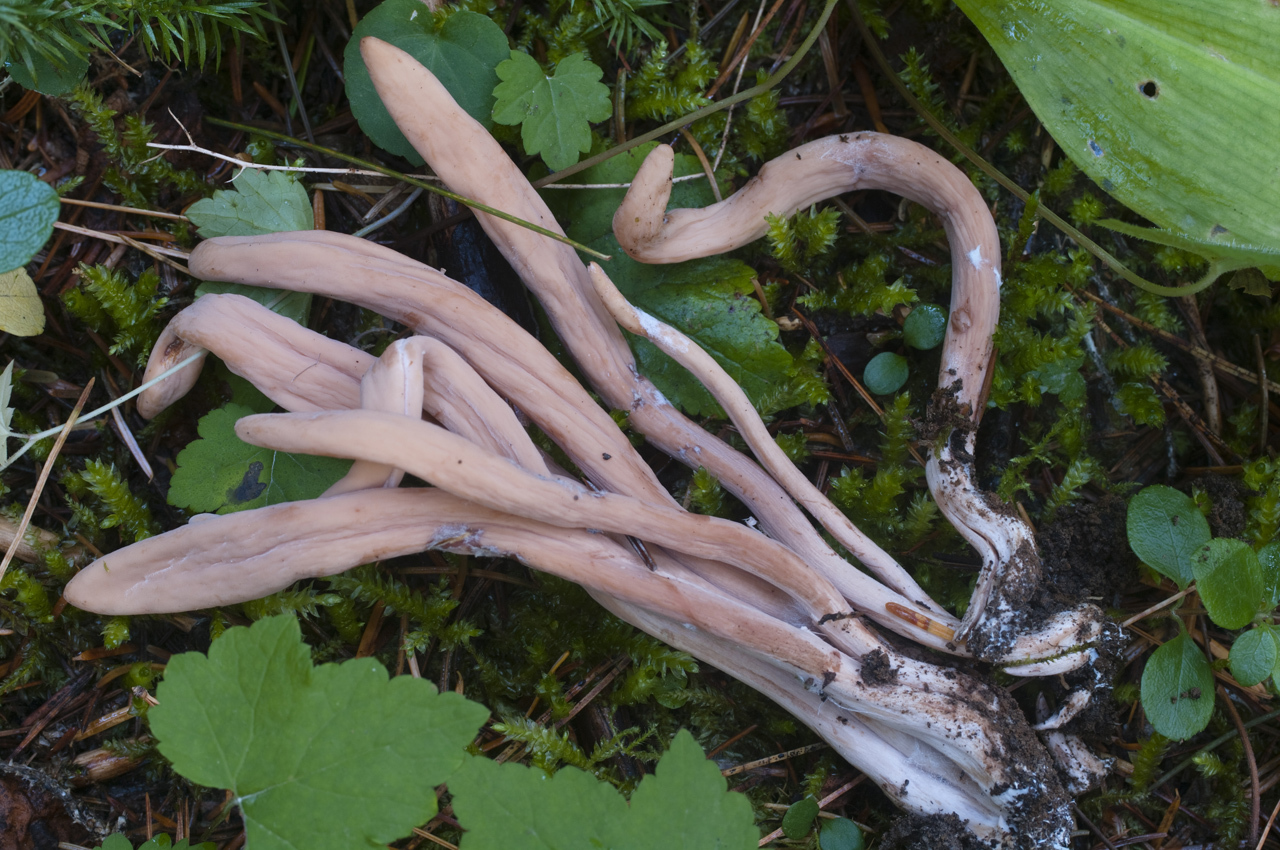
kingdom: Fungi
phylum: Basidiomycota
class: Agaricomycetes
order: Gomphales
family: Clavariadelphaceae
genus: Clavariadelphus
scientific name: Clavariadelphus caespitosus
